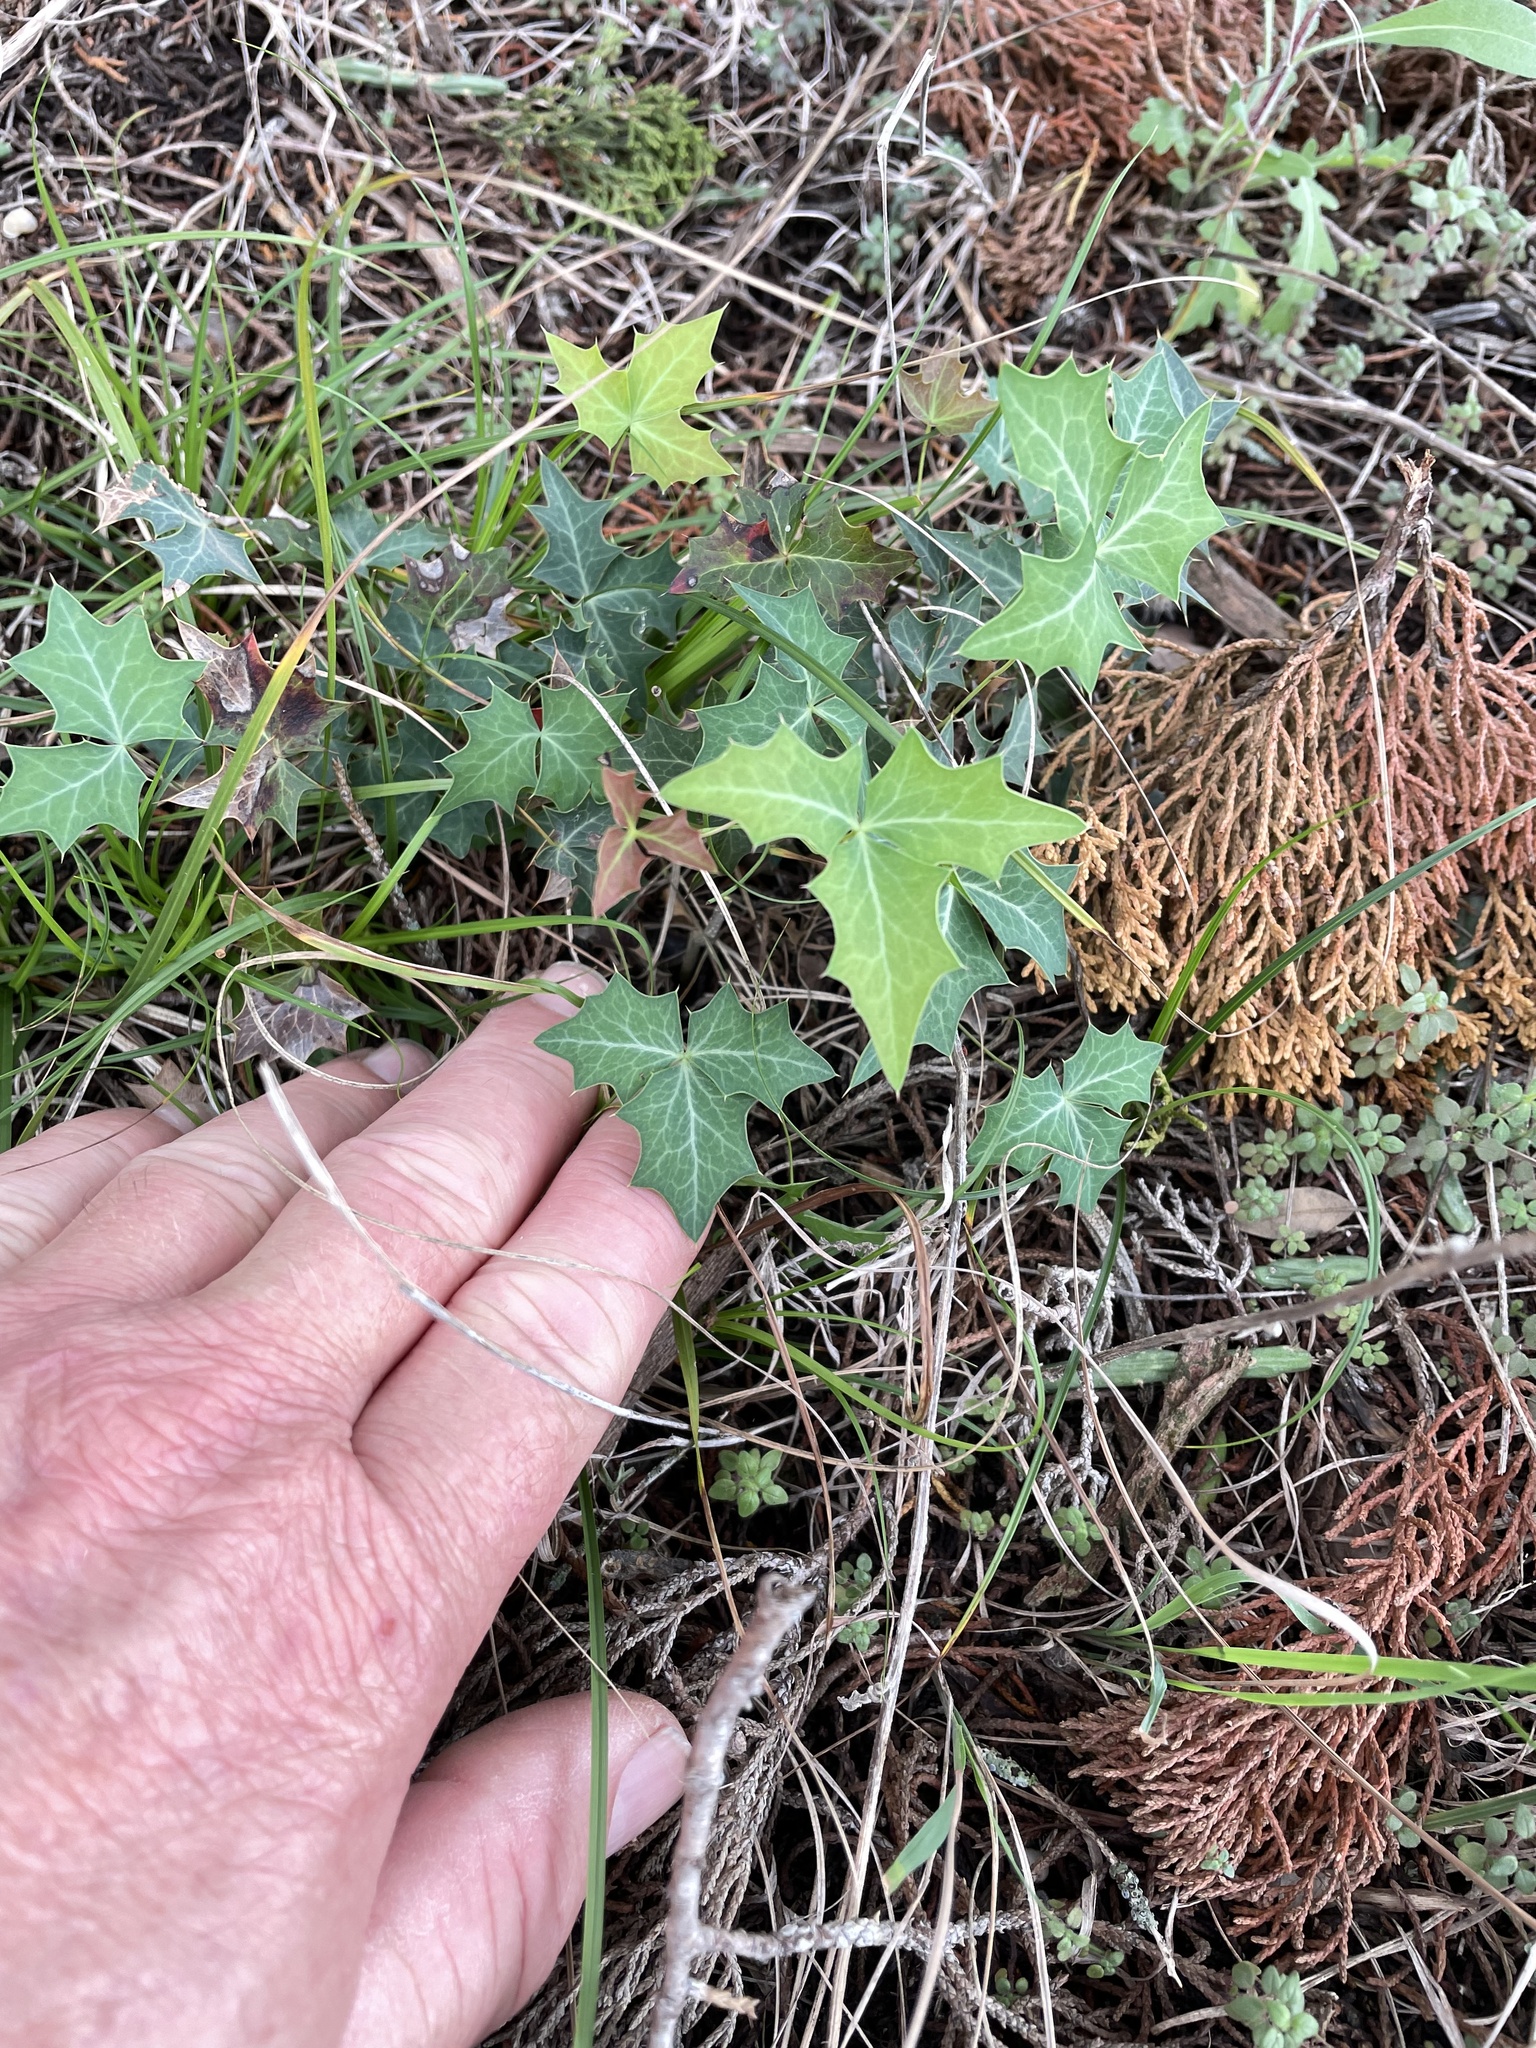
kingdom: Plantae
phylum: Tracheophyta
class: Magnoliopsida
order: Ranunculales
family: Berberidaceae
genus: Alloberberis
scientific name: Alloberberis trifoliolata
